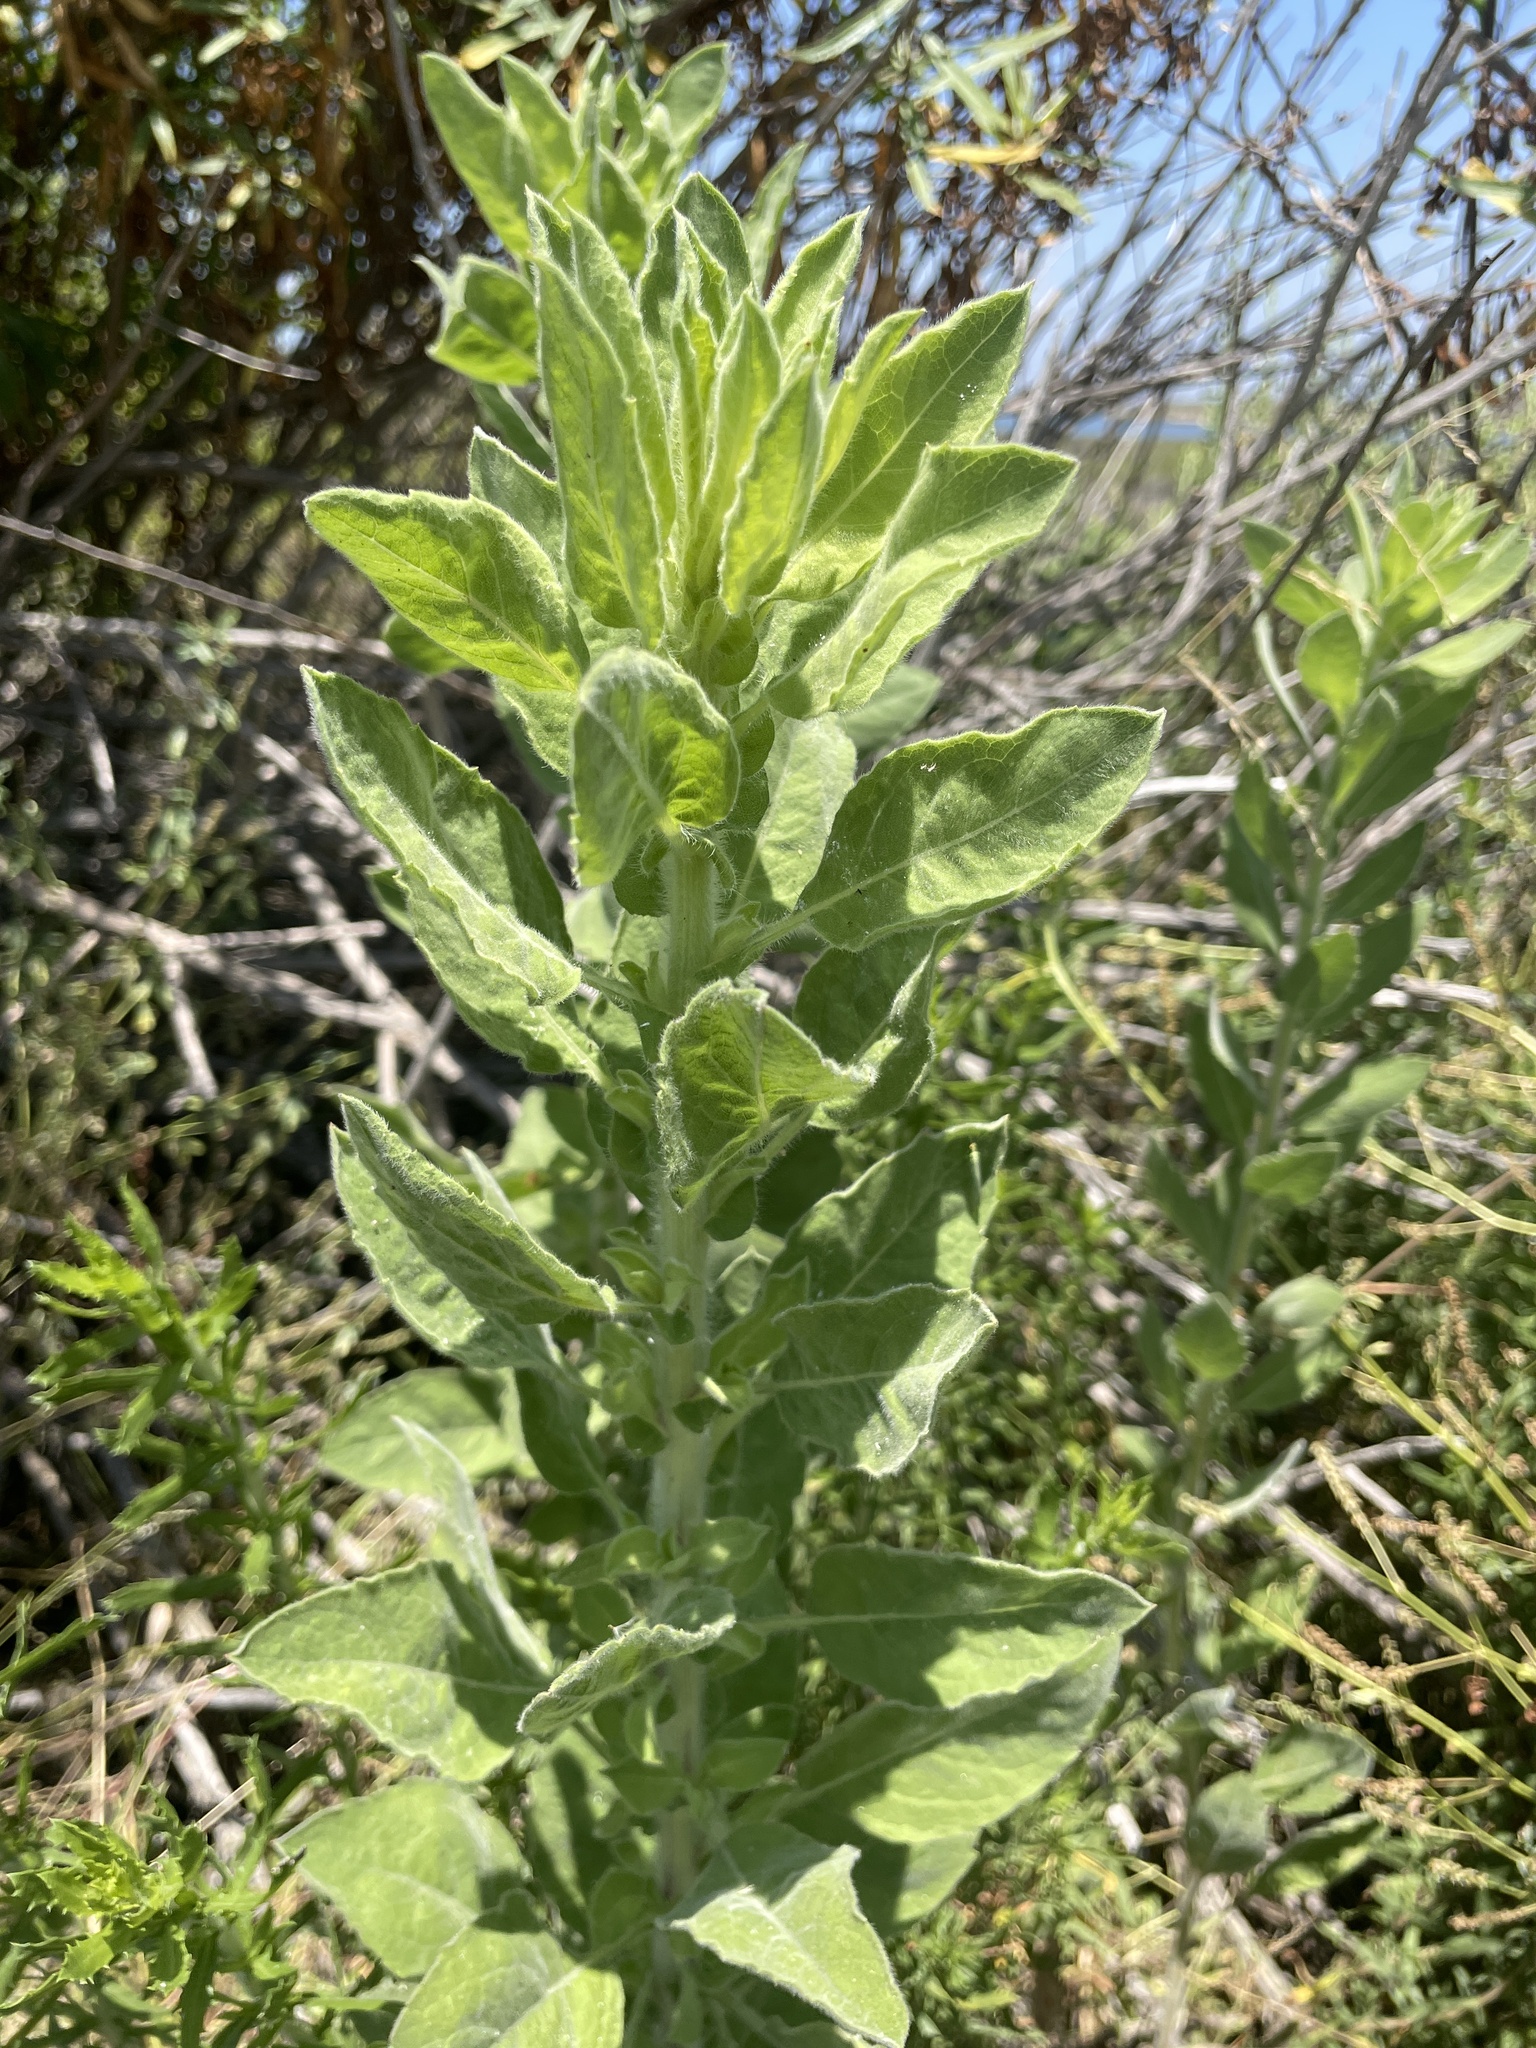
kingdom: Plantae
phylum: Tracheophyta
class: Magnoliopsida
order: Asterales
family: Asteraceae
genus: Heterotheca
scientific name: Heterotheca grandiflora
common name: Telegraphweed
